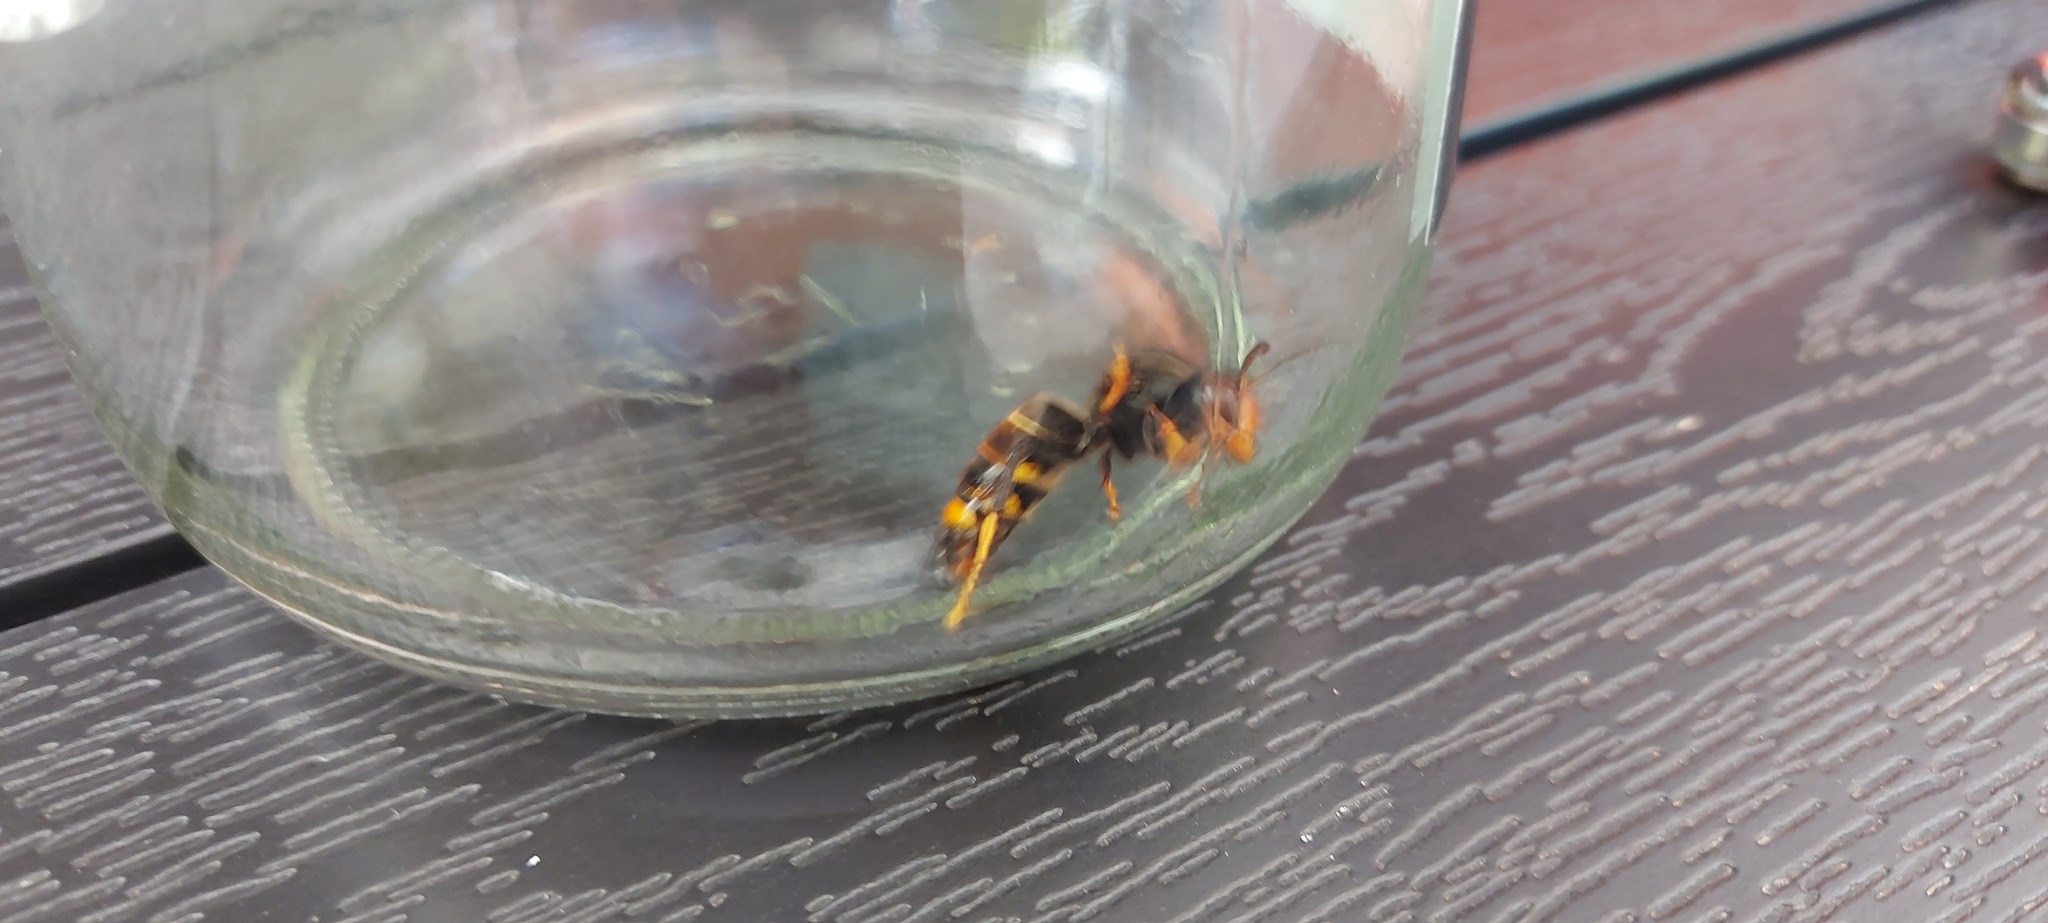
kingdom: Animalia
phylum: Arthropoda
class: Insecta
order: Hymenoptera
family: Vespidae
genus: Vespa
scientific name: Vespa velutina
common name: Asian hornet
